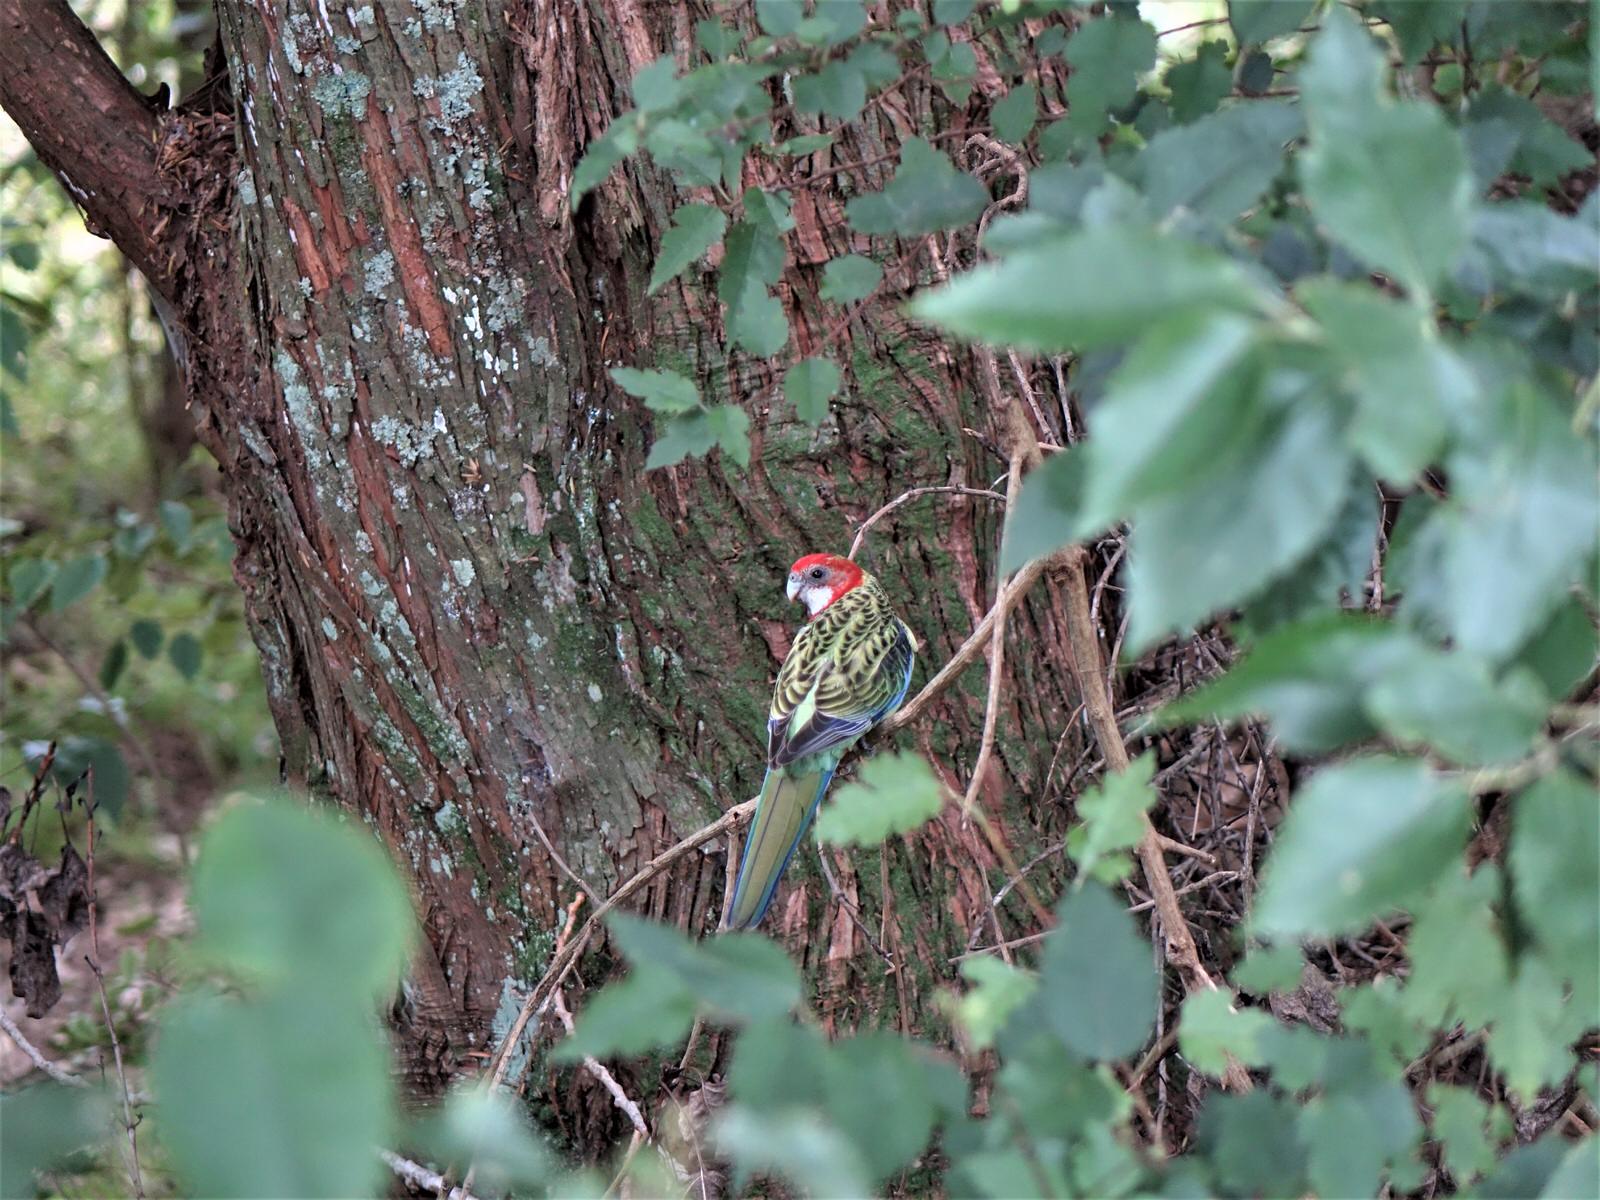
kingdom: Animalia
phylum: Chordata
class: Aves
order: Psittaciformes
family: Psittacidae
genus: Platycercus
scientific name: Platycercus eximius
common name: Eastern rosella
